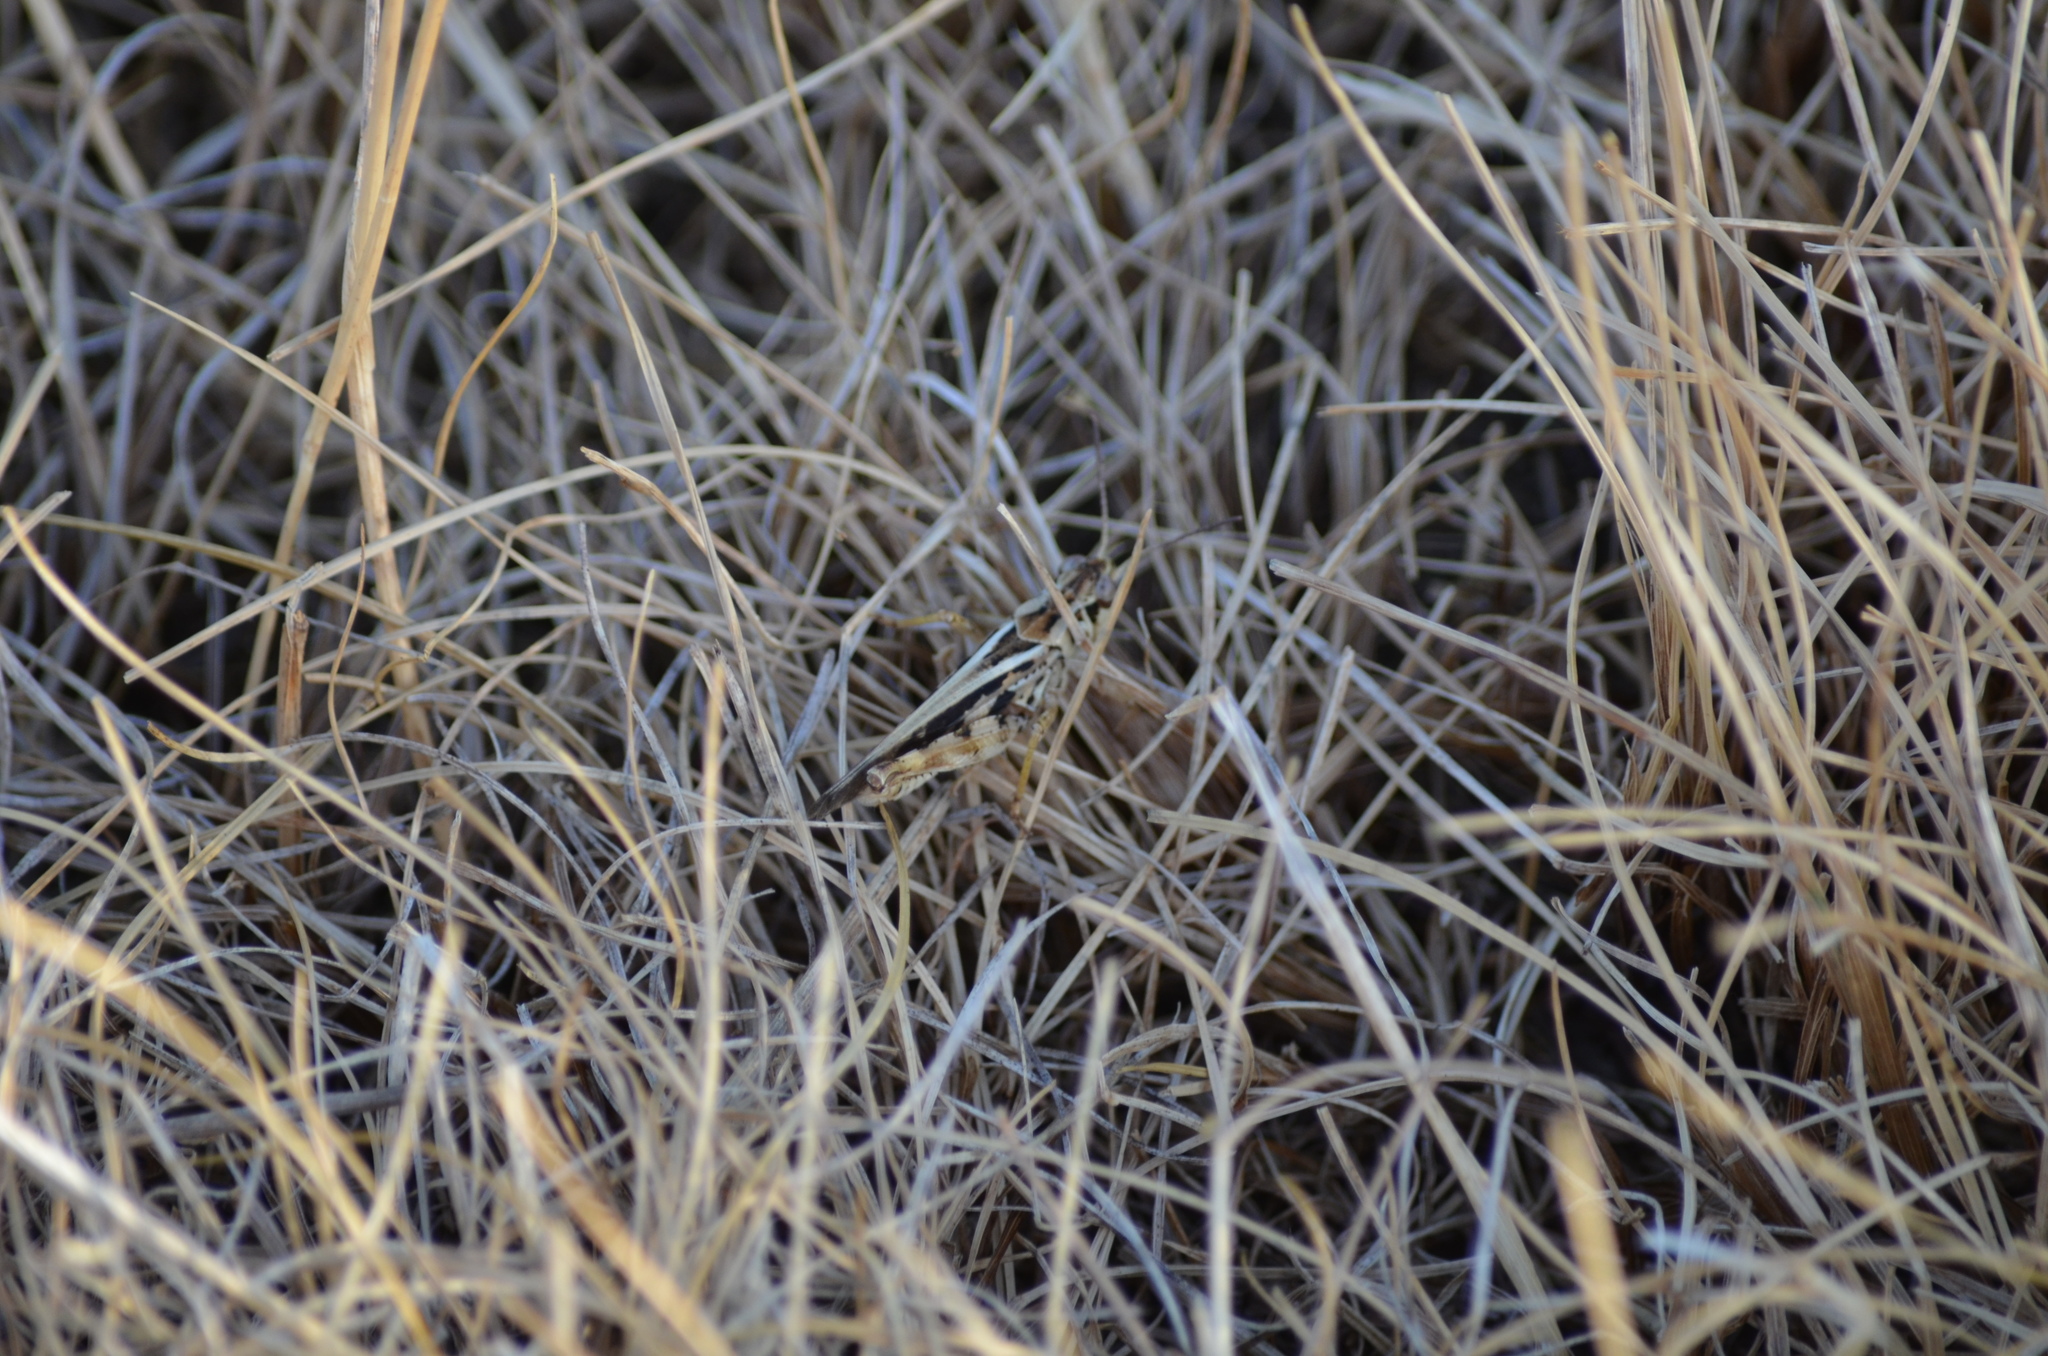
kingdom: Animalia
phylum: Arthropoda
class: Insecta
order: Orthoptera
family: Acrididae
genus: Camnula
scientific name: Camnula pellucida
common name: Clear-winged grasshopper
